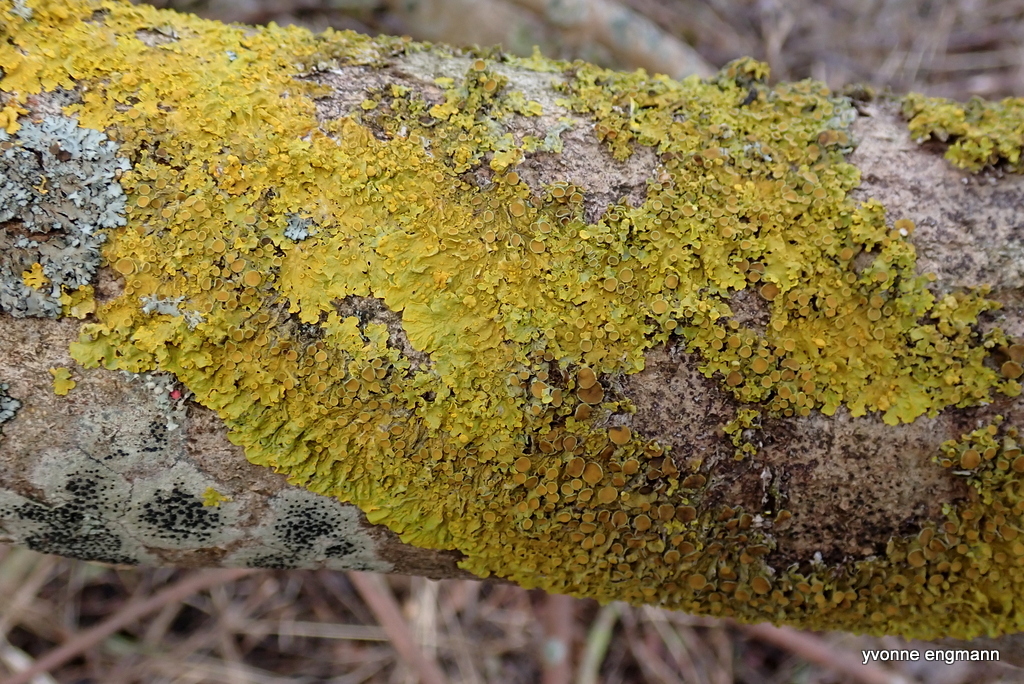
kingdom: Fungi
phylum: Ascomycota
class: Lecanoromycetes
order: Teloschistales
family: Teloschistaceae
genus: Xanthoria
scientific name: Xanthoria parietina
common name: Common orange lichen
